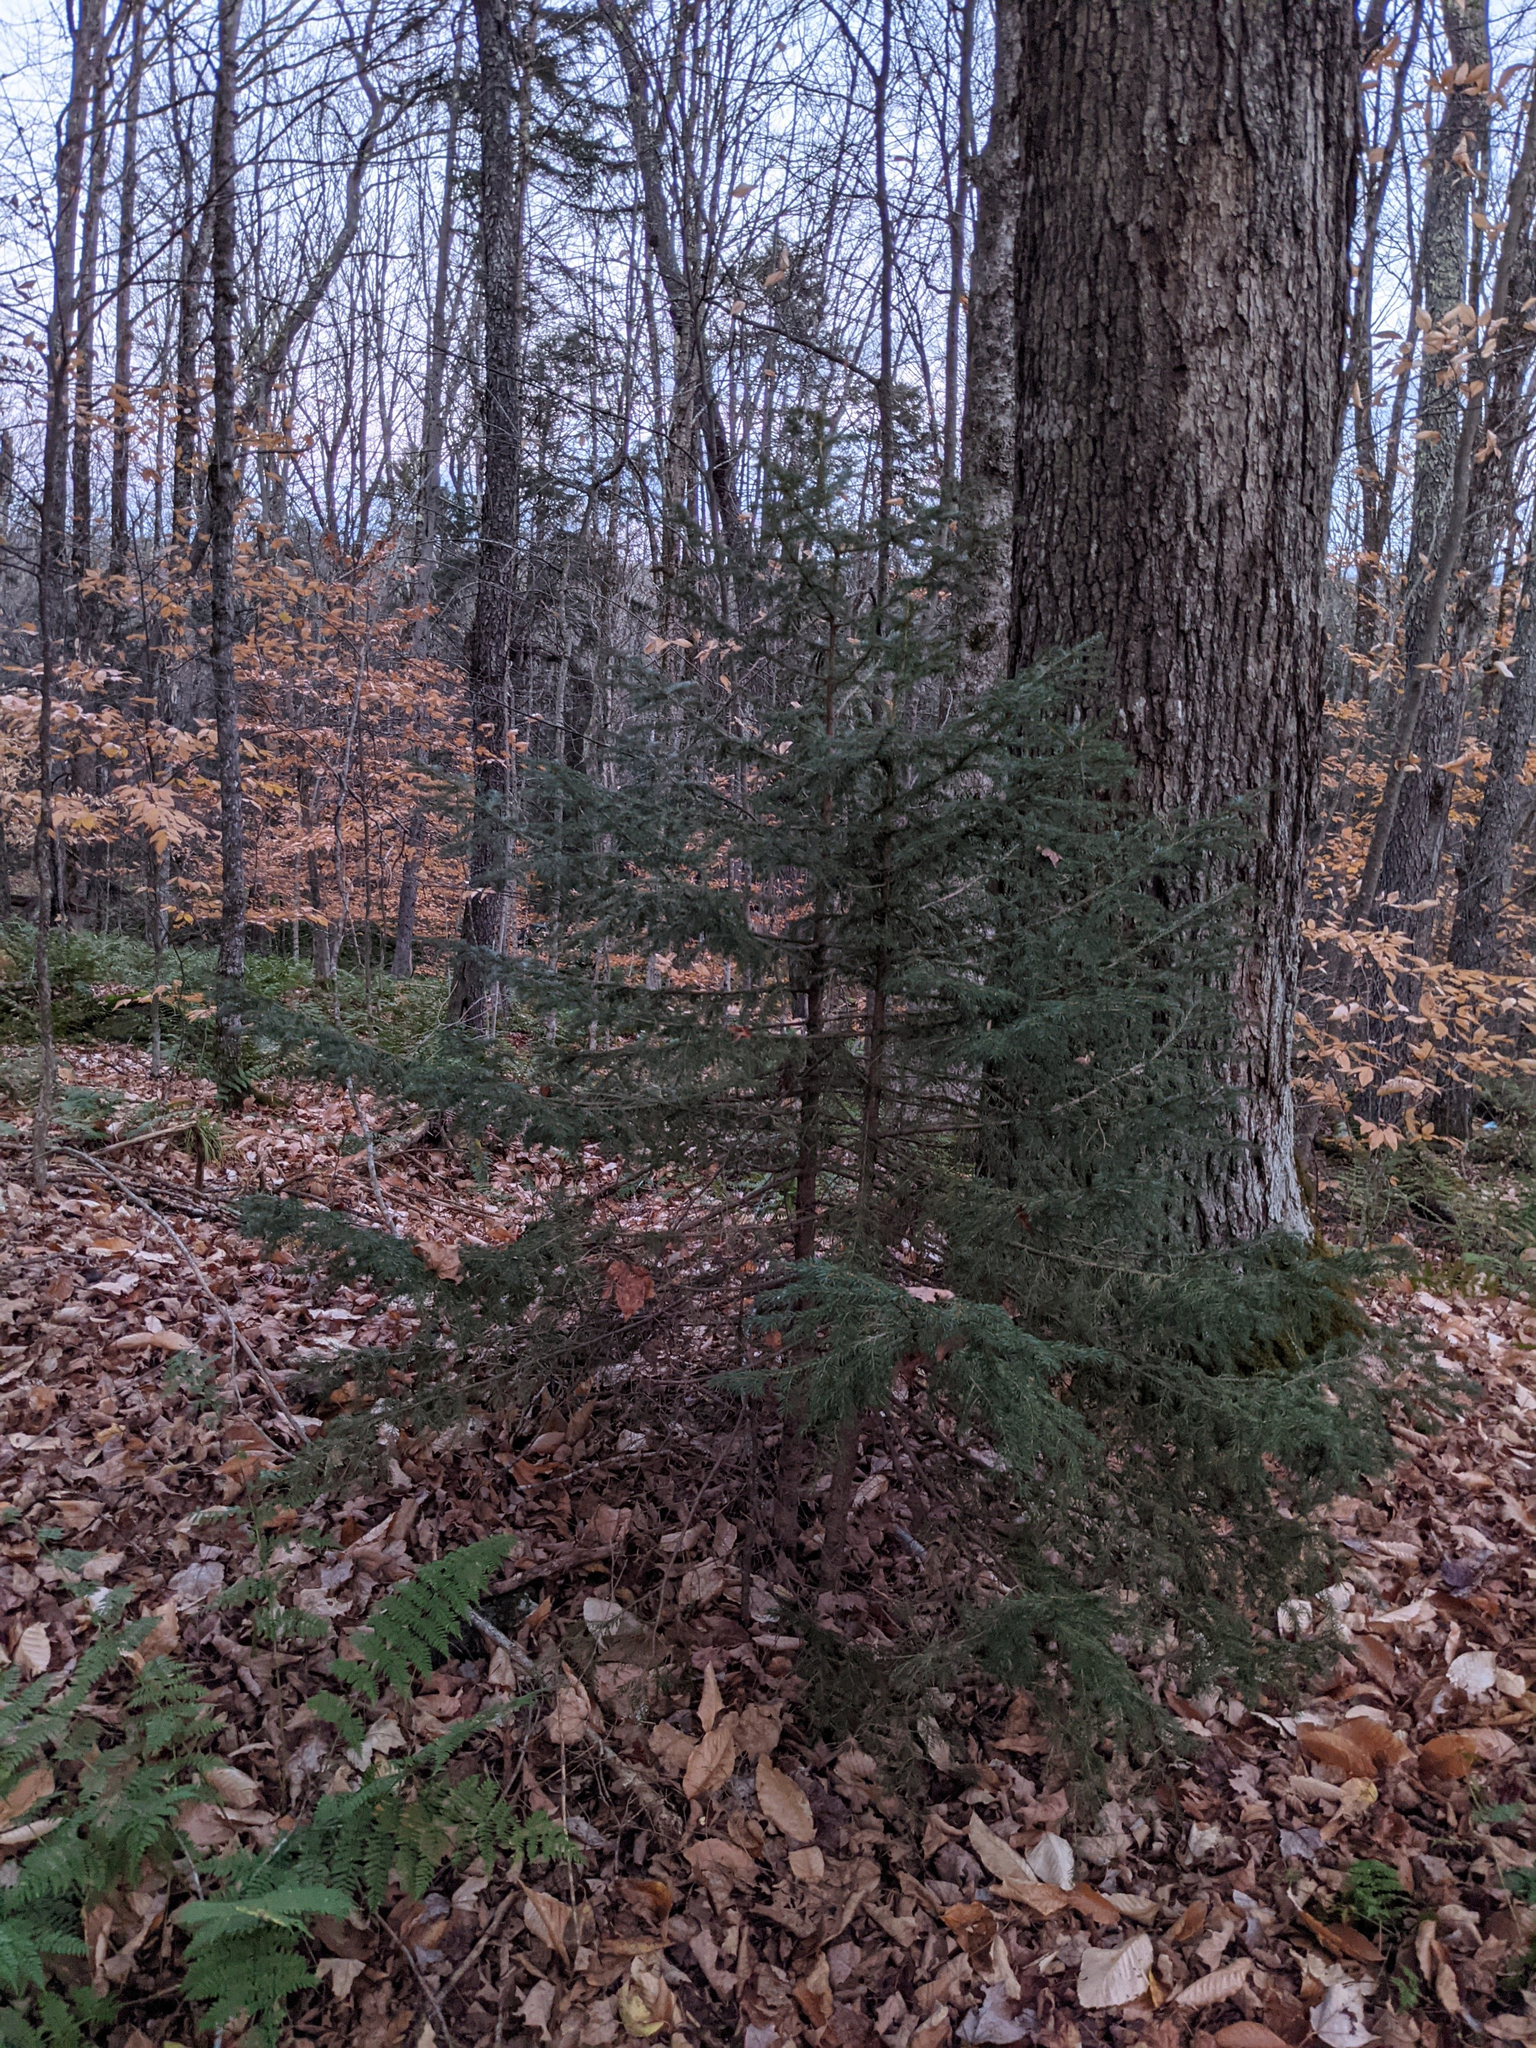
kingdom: Plantae
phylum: Tracheophyta
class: Pinopsida
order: Pinales
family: Pinaceae
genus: Picea
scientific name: Picea rubens
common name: Red spruce
